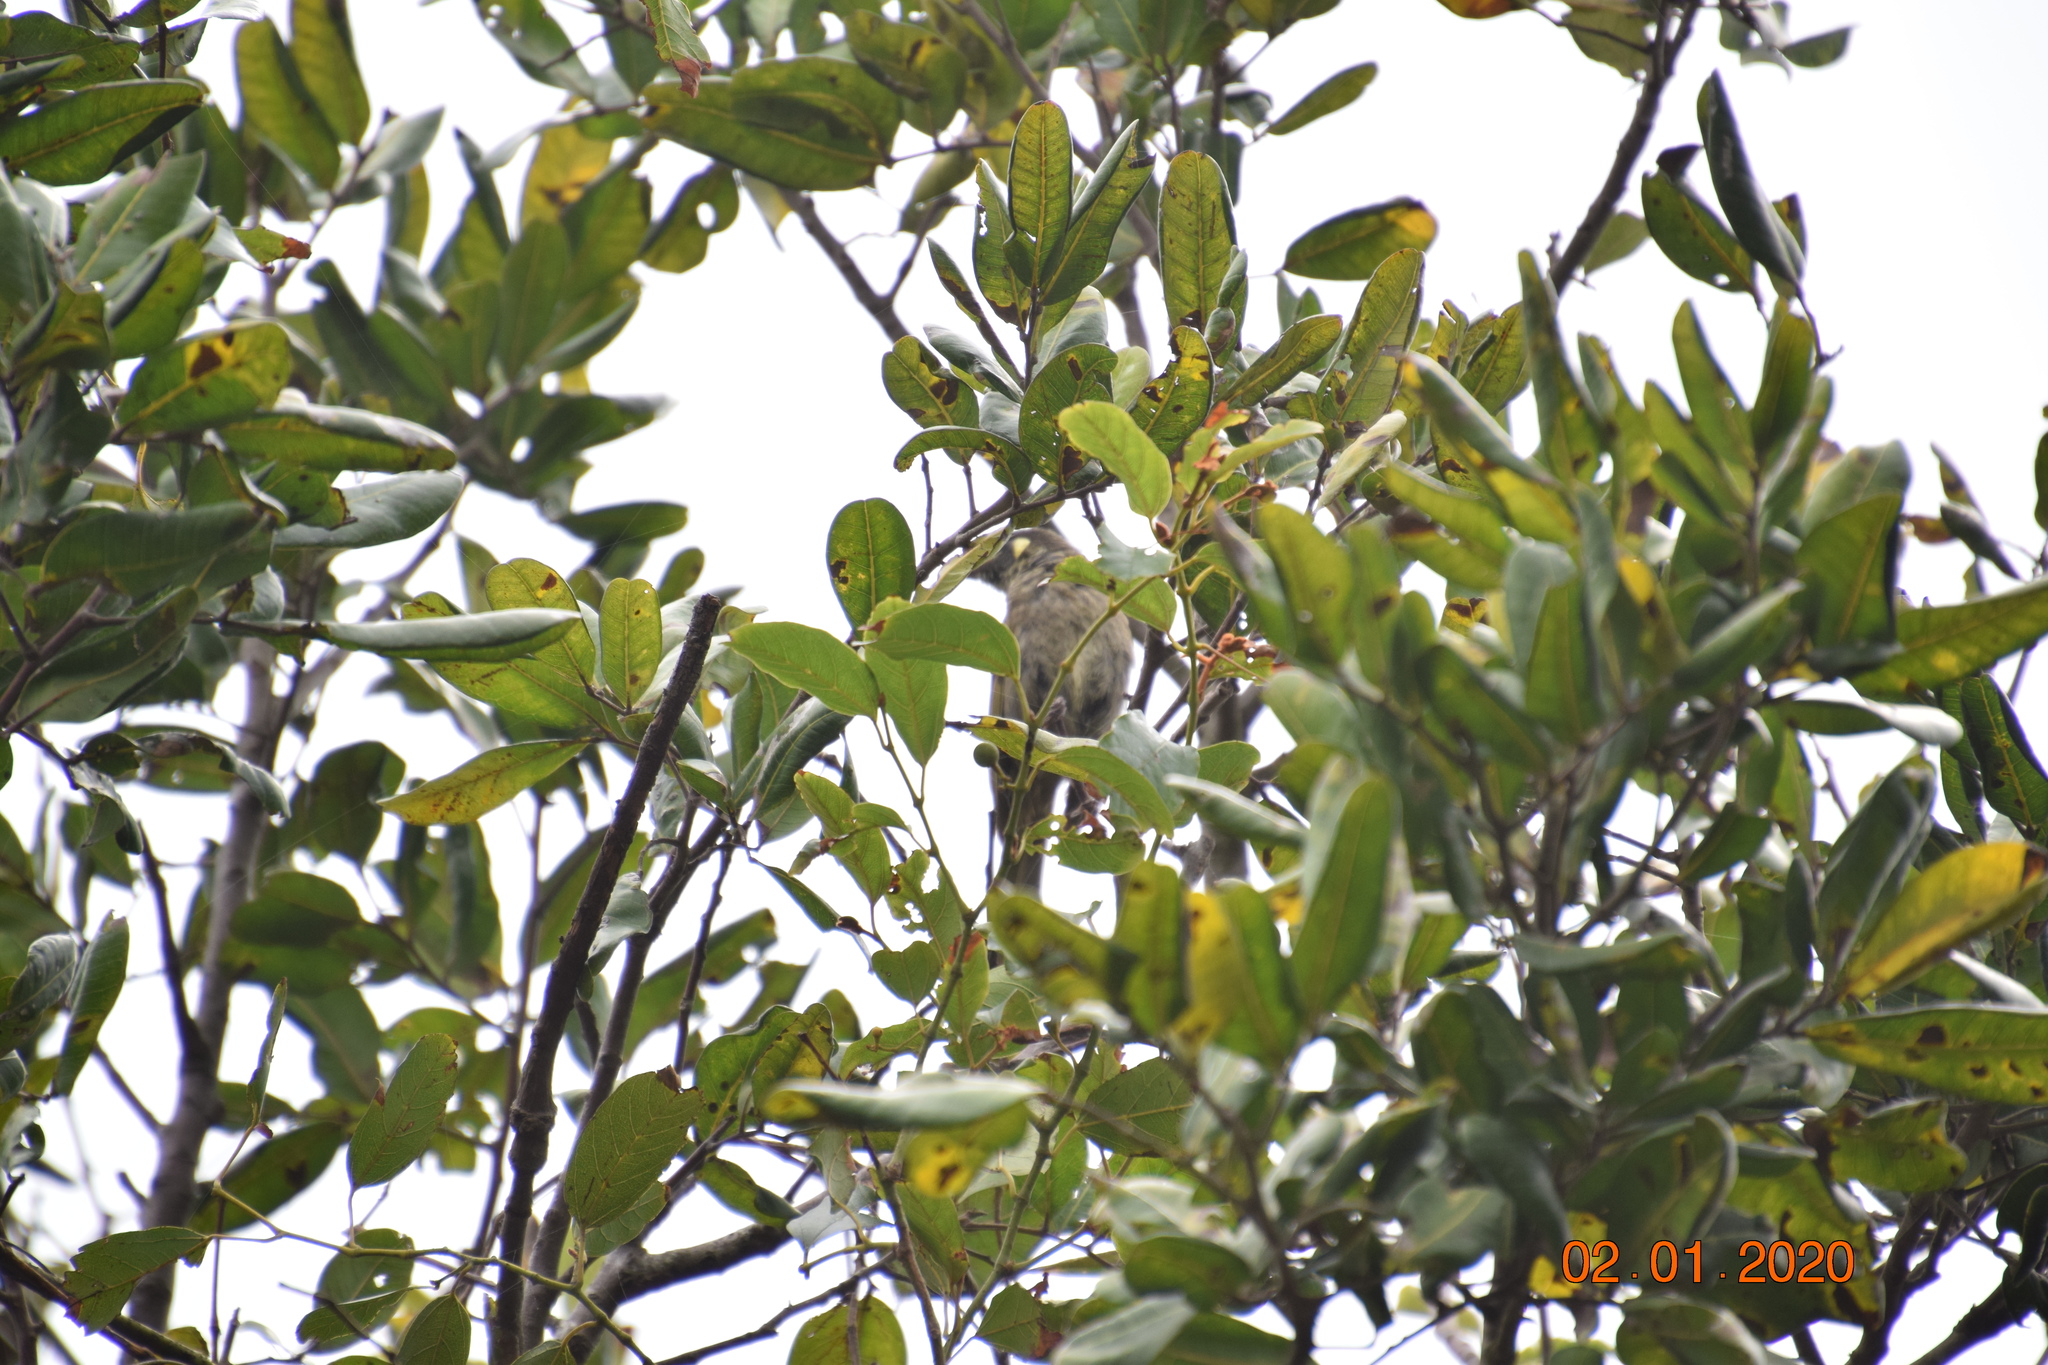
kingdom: Animalia
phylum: Chordata
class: Aves
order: Passeriformes
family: Meliphagidae
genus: Meliphaga
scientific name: Meliphaga lewinii
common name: Lewin's honeyeater
